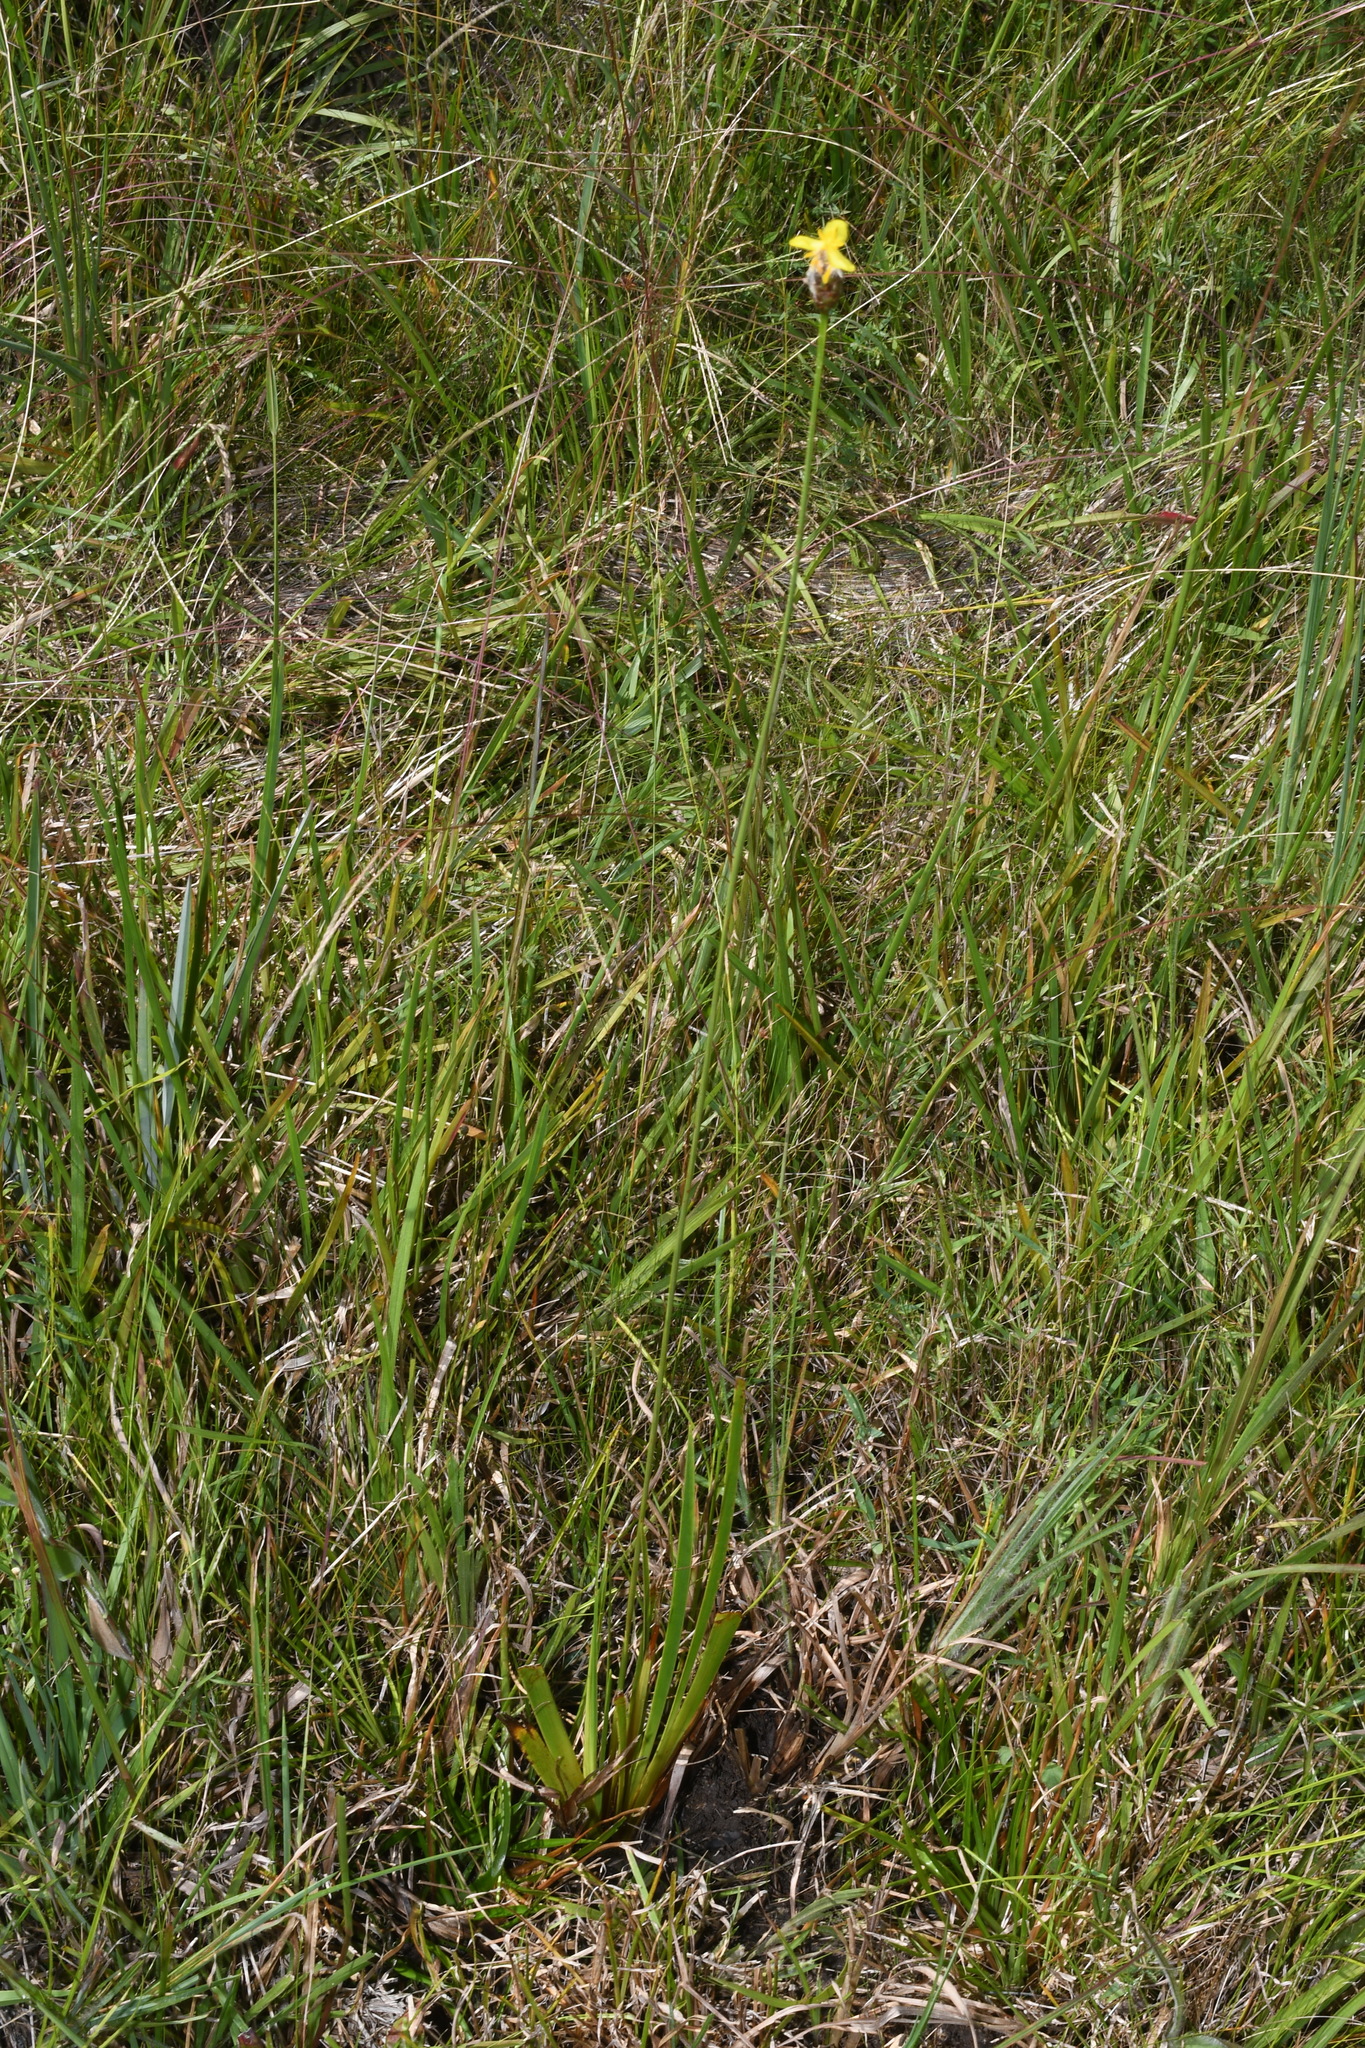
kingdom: Plantae
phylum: Tracheophyta
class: Liliopsida
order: Poales
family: Xyridaceae
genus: Xyris
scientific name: Xyris ambigua
